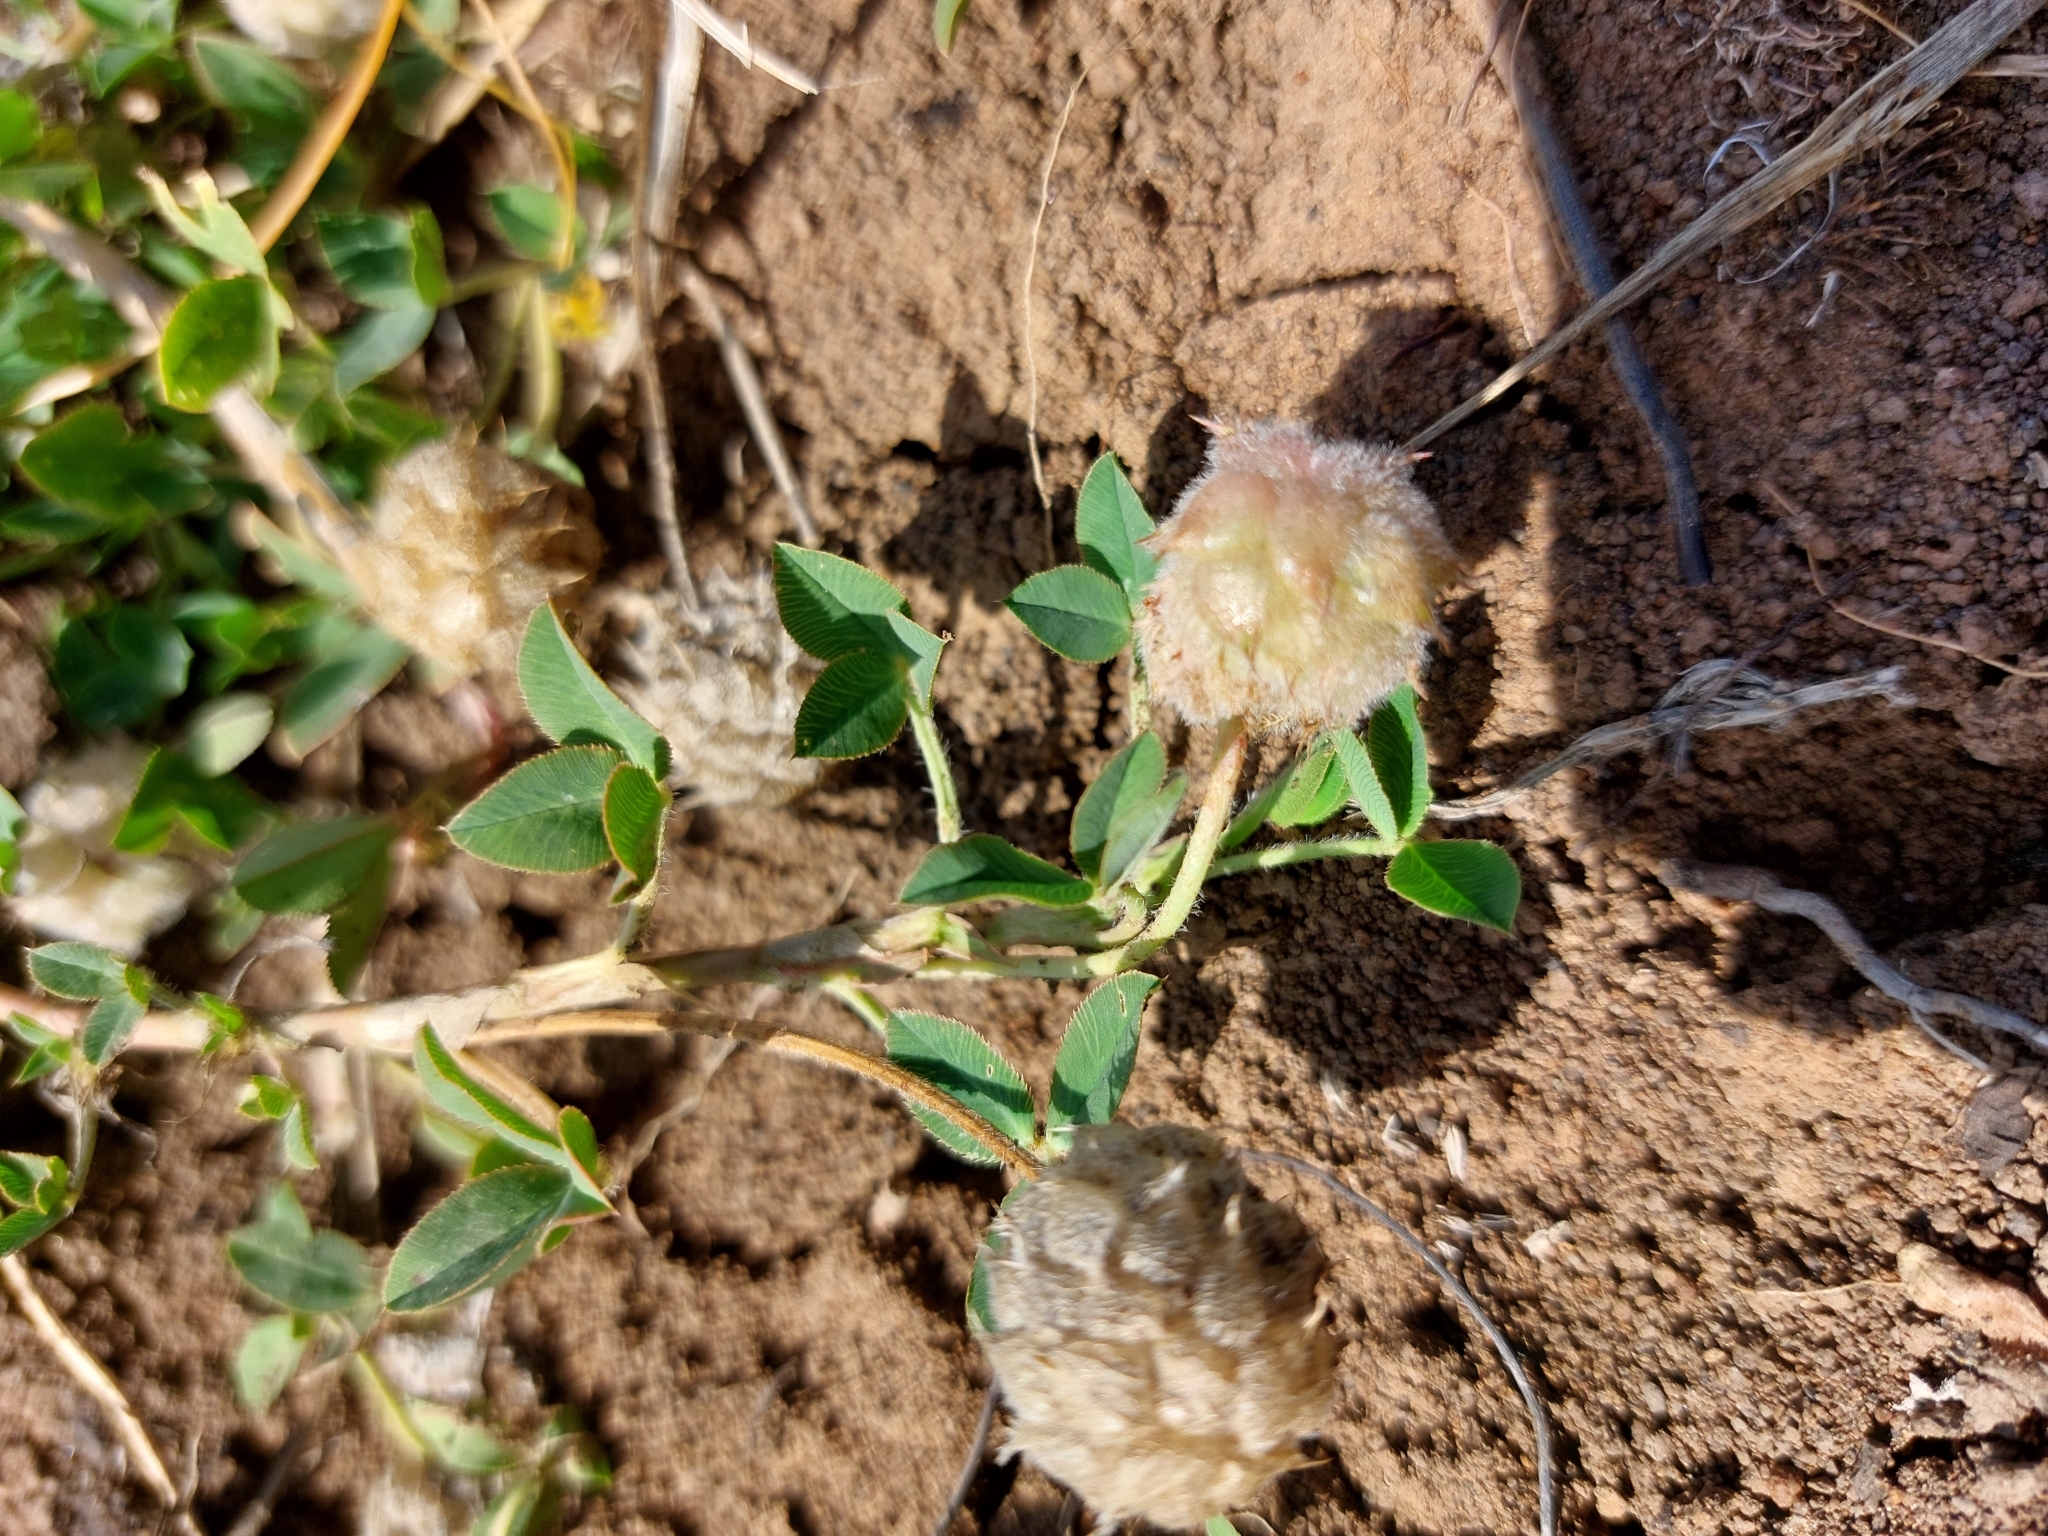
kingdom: Plantae
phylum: Tracheophyta
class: Magnoliopsida
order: Fabales
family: Fabaceae
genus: Trifolium
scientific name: Trifolium fragiferum
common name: Strawberry clover
